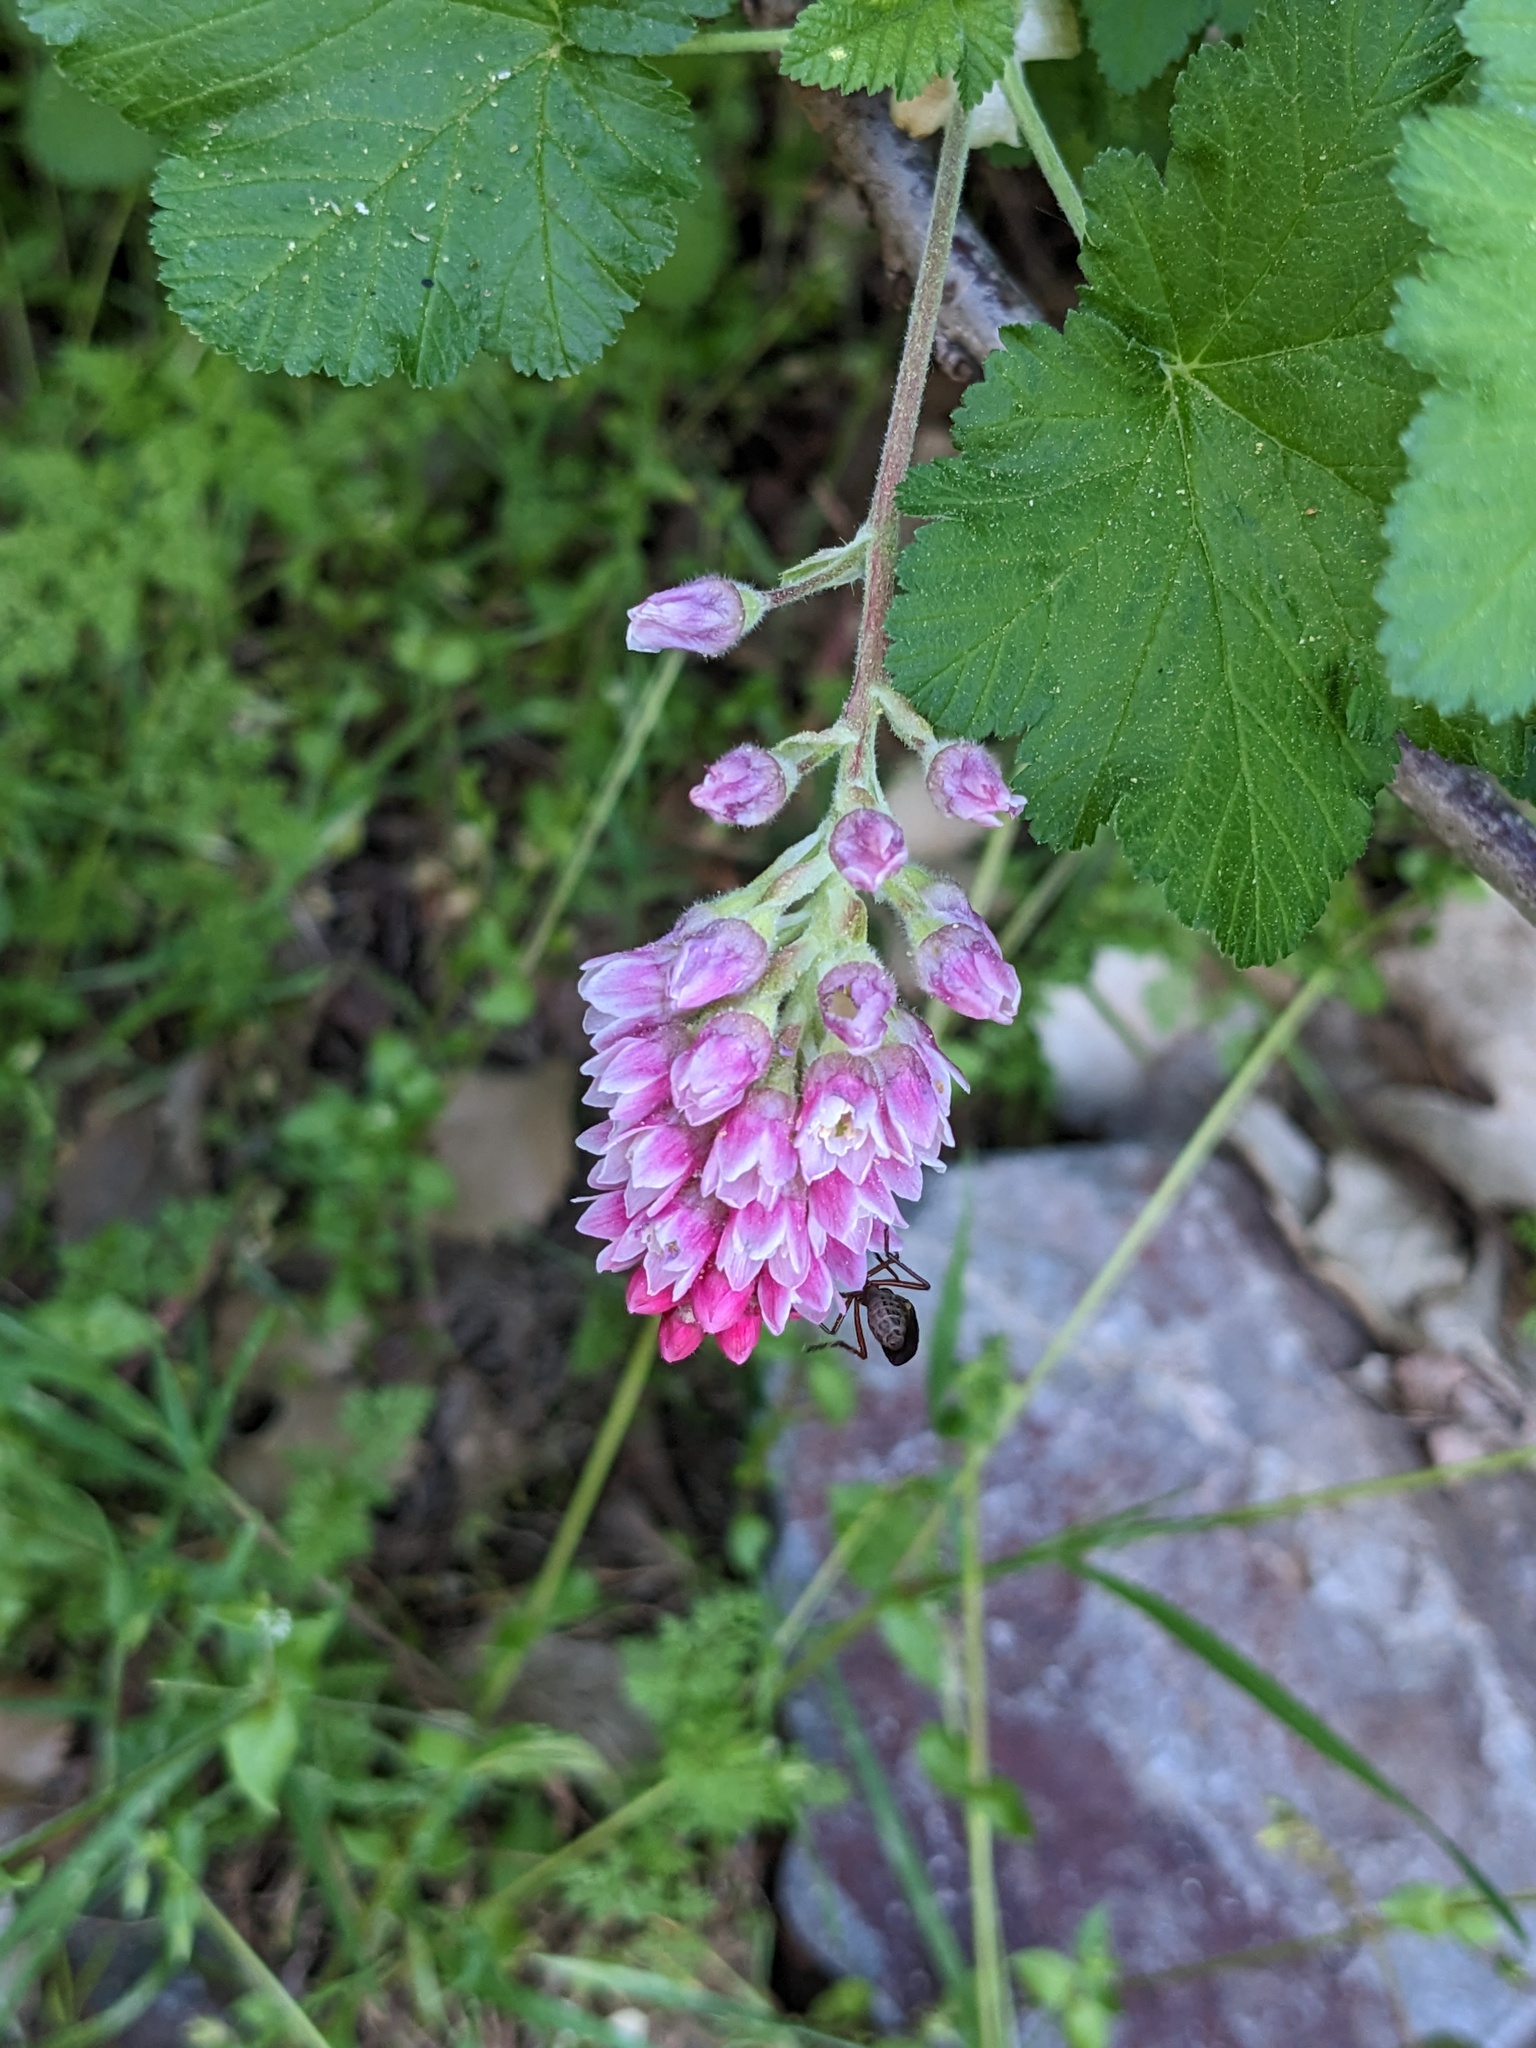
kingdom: Plantae
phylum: Tracheophyta
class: Magnoliopsida
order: Saxifragales
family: Grossulariaceae
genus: Ribes
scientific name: Ribes nevadense
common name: Mountain pink currant
